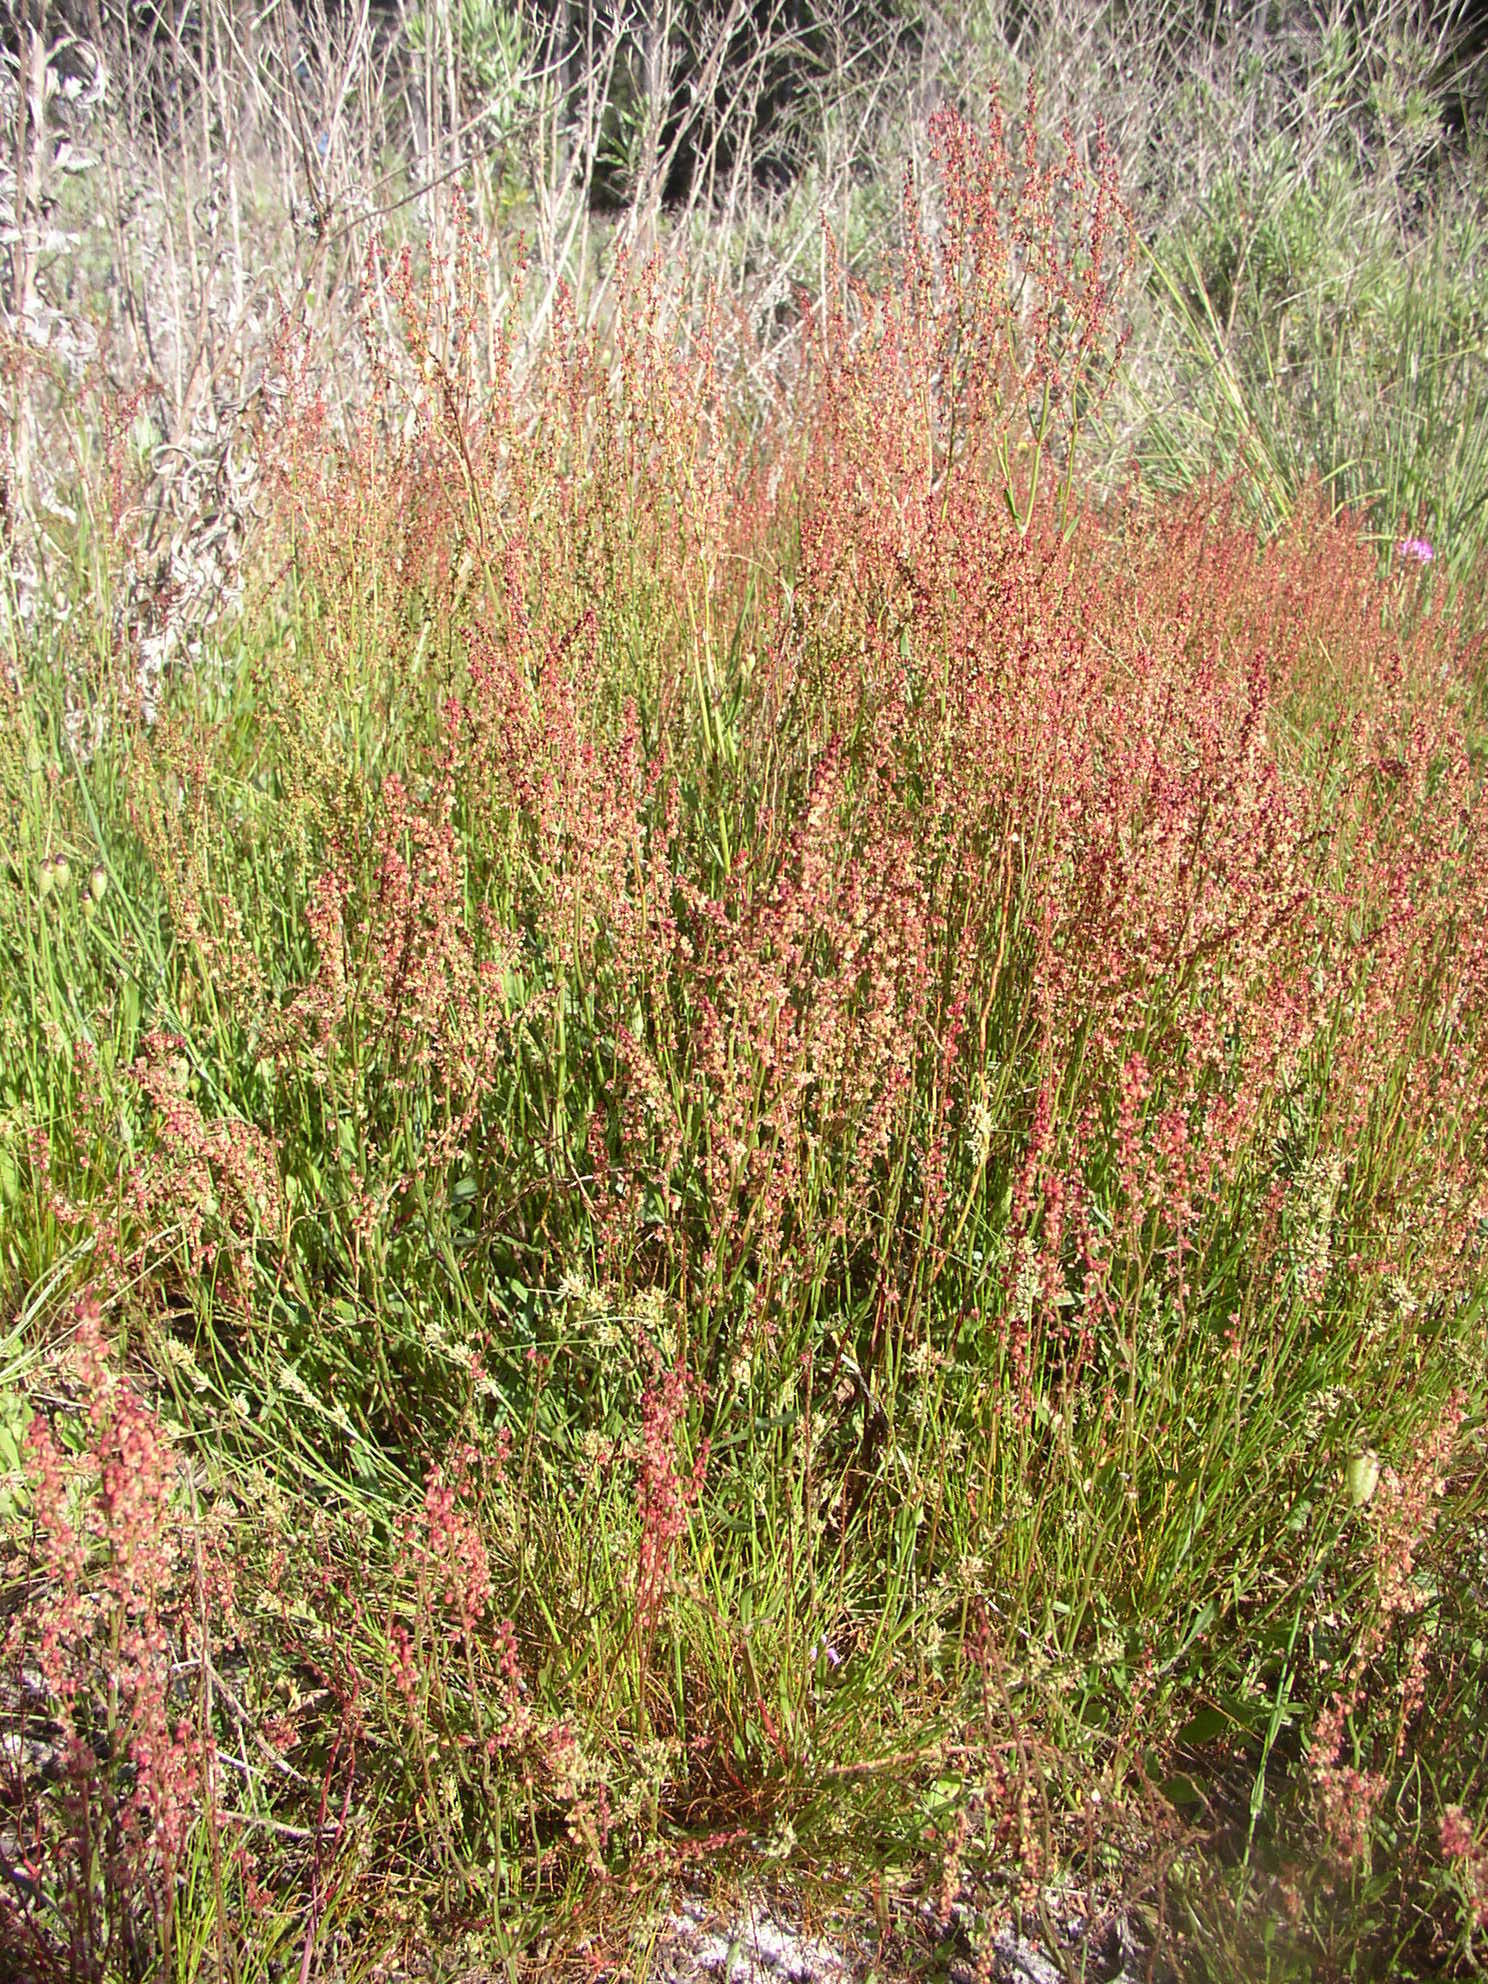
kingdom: Plantae
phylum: Tracheophyta
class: Magnoliopsida
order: Caryophyllales
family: Polygonaceae
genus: Rumex
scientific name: Rumex acetosella
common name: Common sheep sorrel
